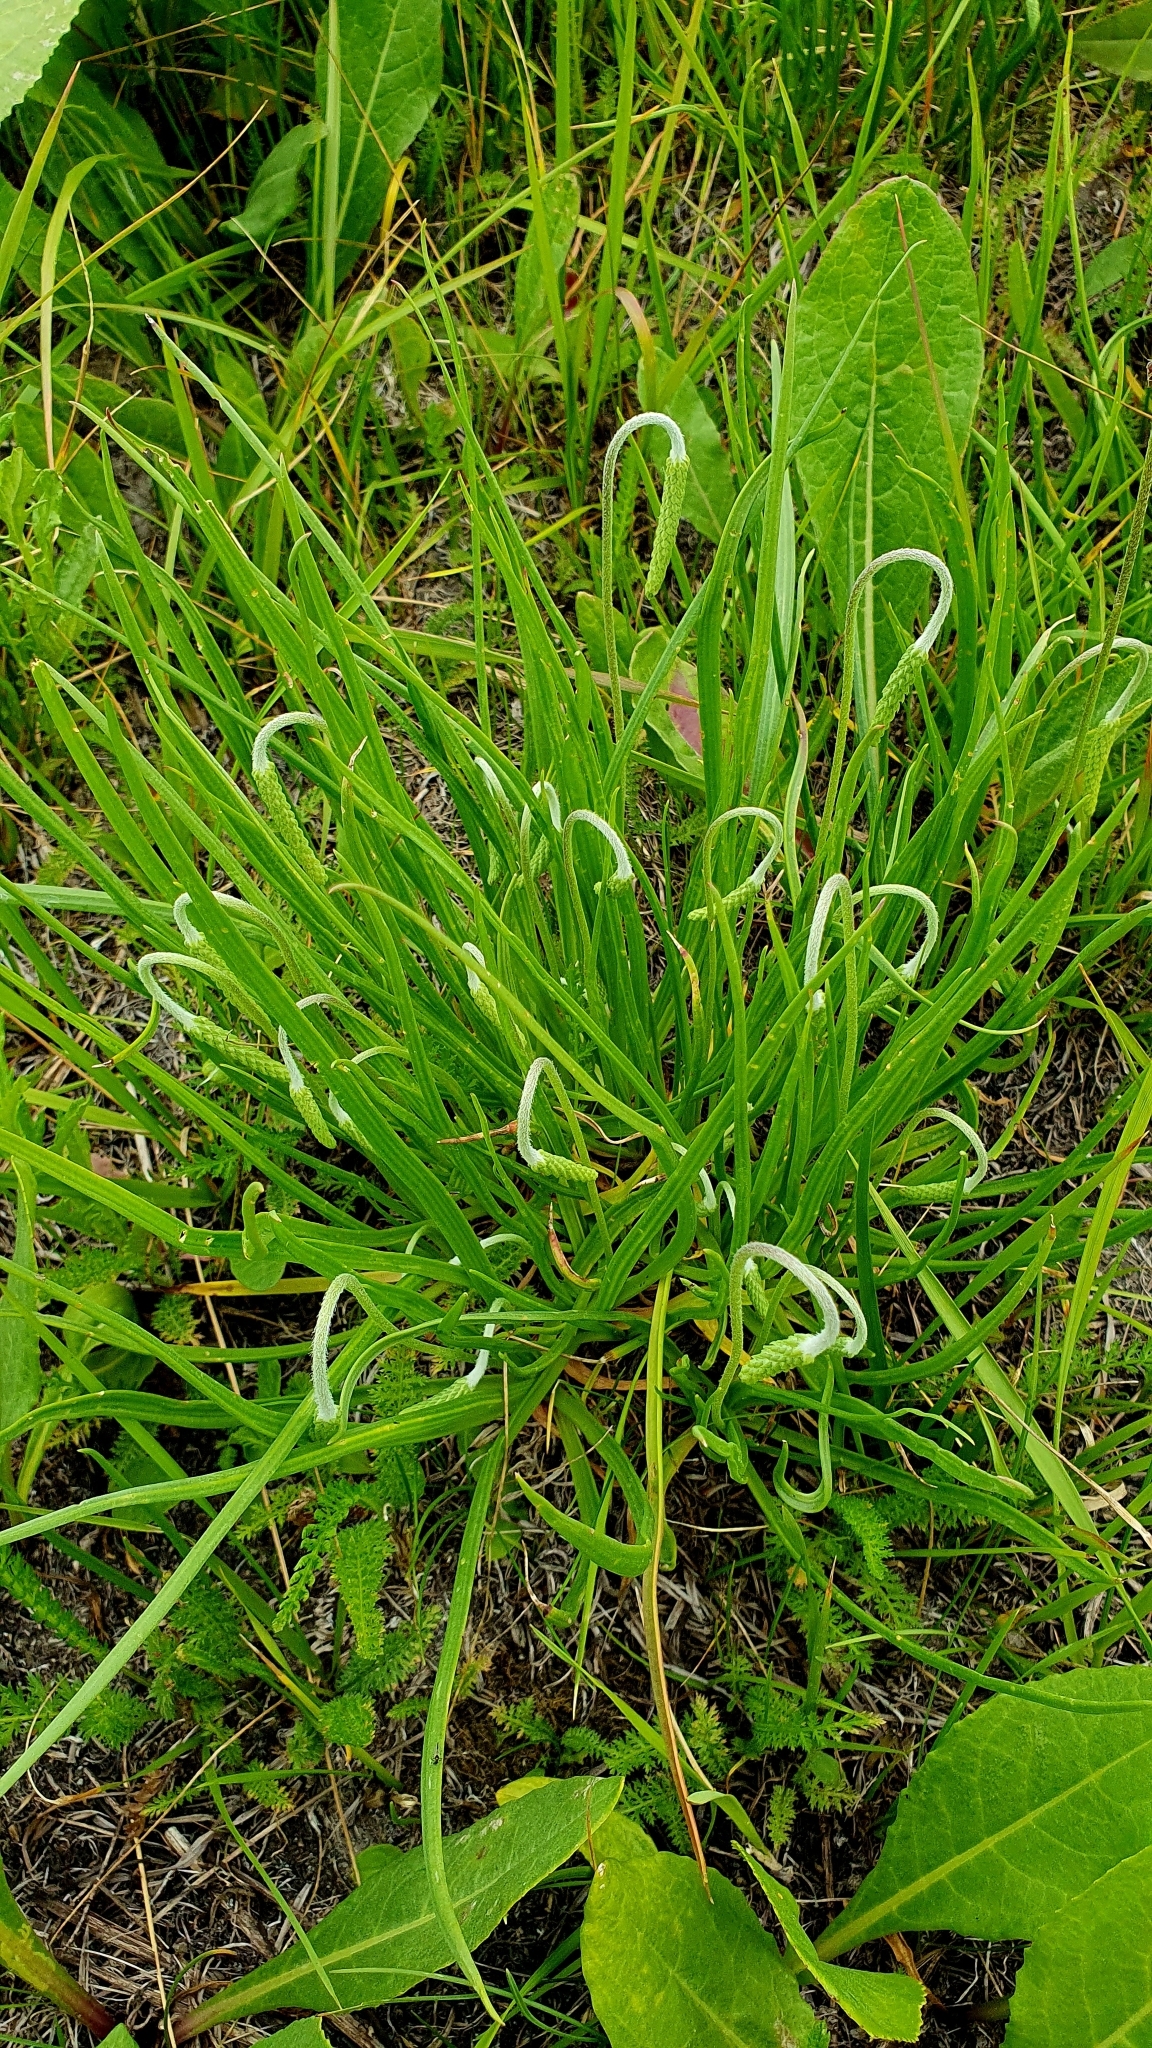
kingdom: Plantae
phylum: Tracheophyta
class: Magnoliopsida
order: Lamiales
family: Plantaginaceae
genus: Plantago
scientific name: Plantago salsa
